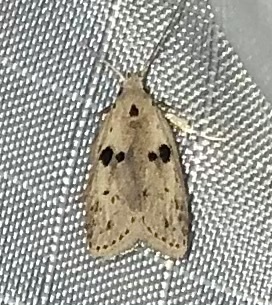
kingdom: Animalia
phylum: Arthropoda
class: Insecta
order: Lepidoptera
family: Peleopodidae
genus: Scythropiodes
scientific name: Scythropiodes issikii
